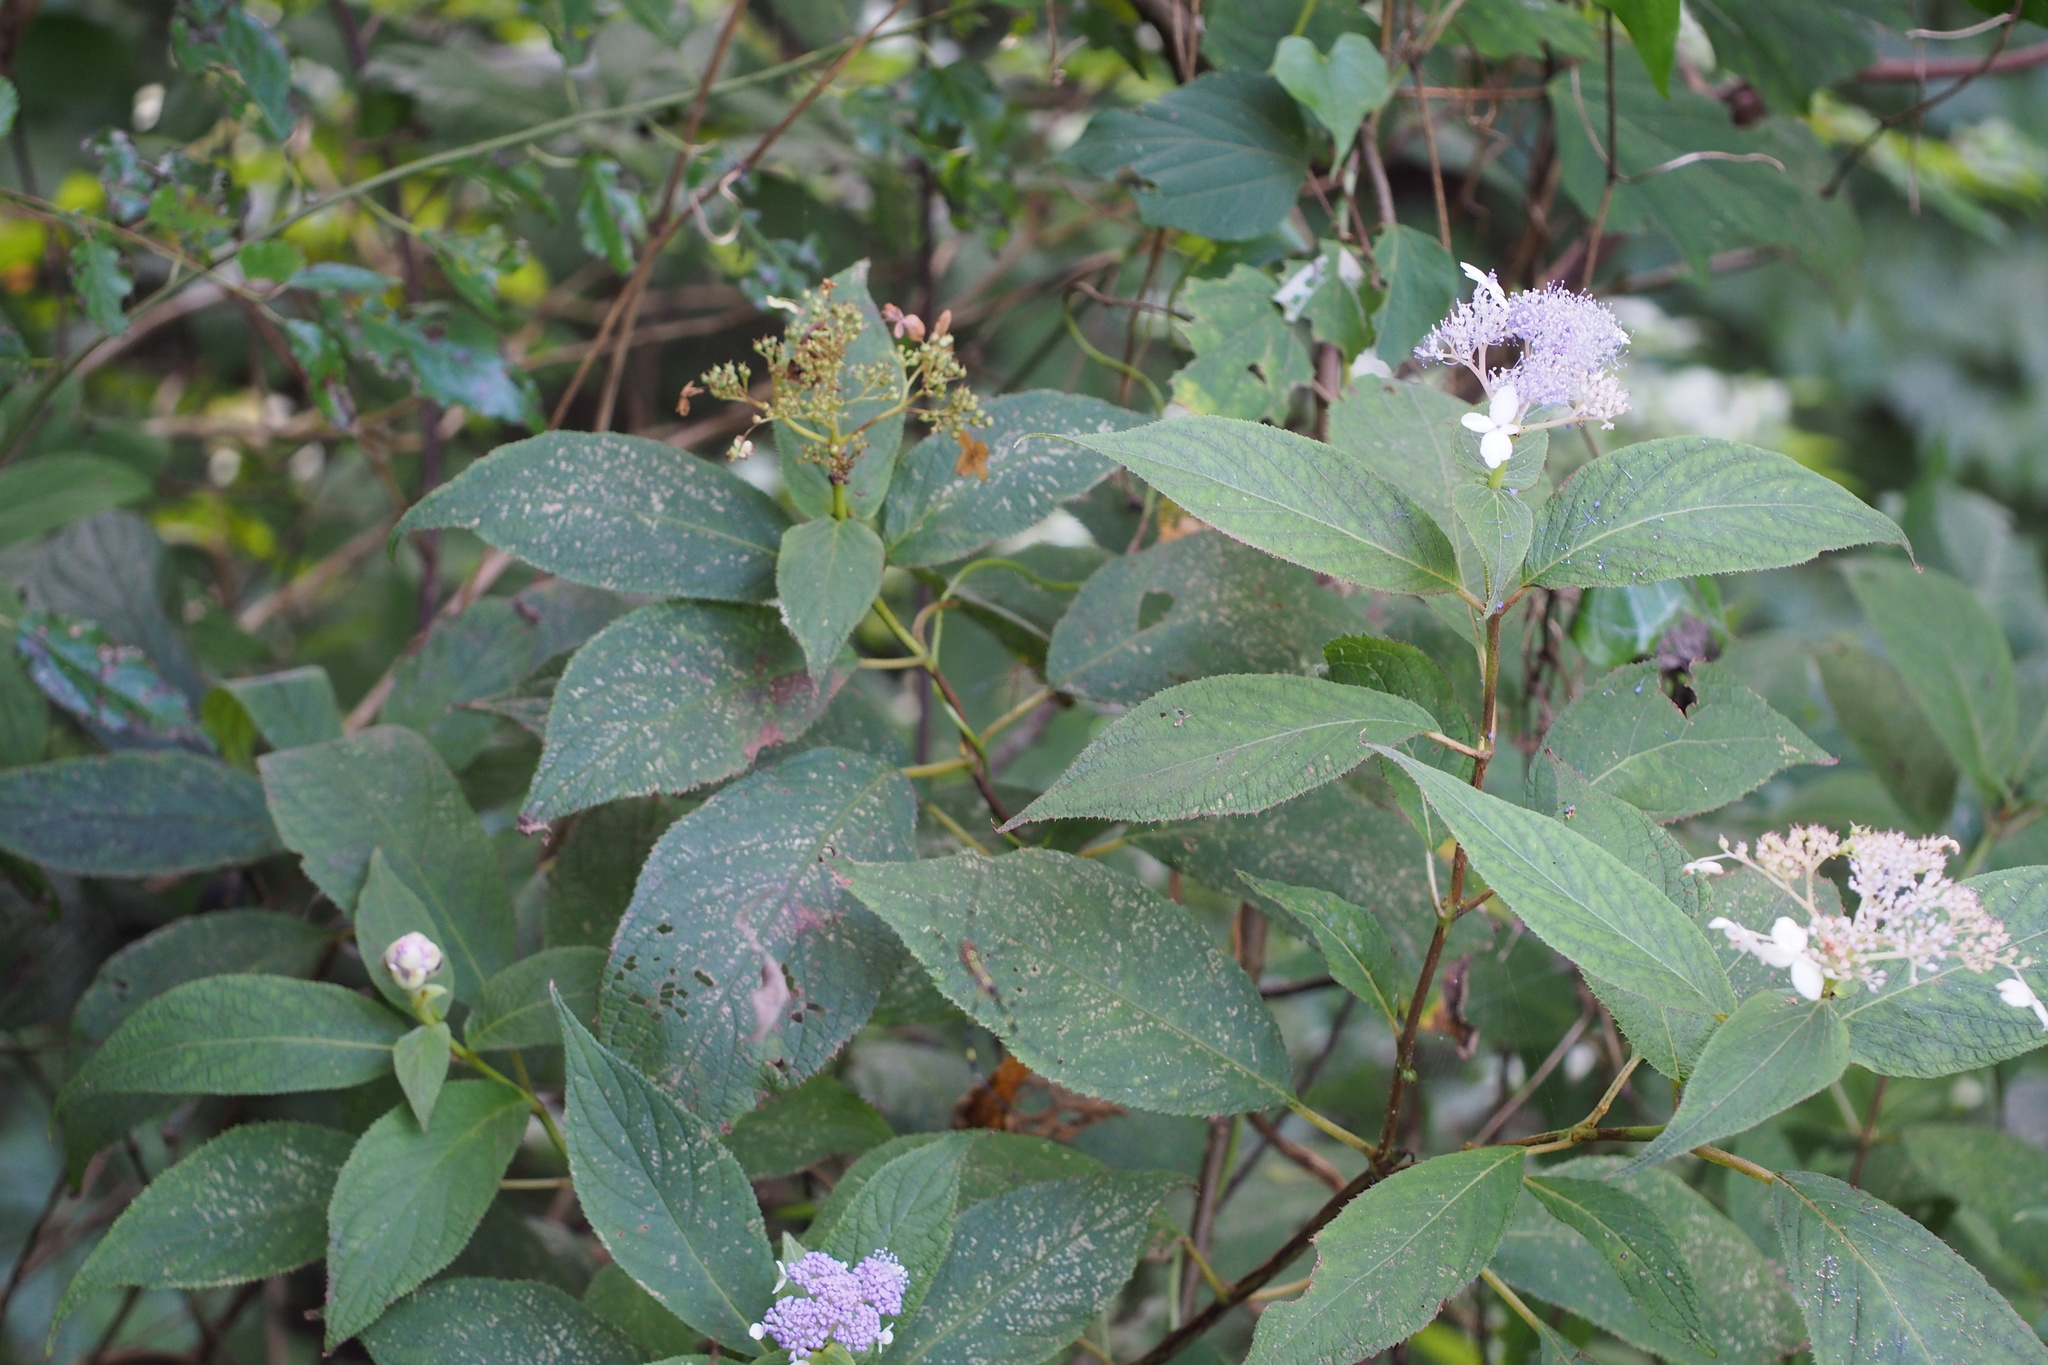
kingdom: Plantae
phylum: Tracheophyta
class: Magnoliopsida
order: Cornales
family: Hydrangeaceae
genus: Hydrangea
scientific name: Hydrangea involucrata
